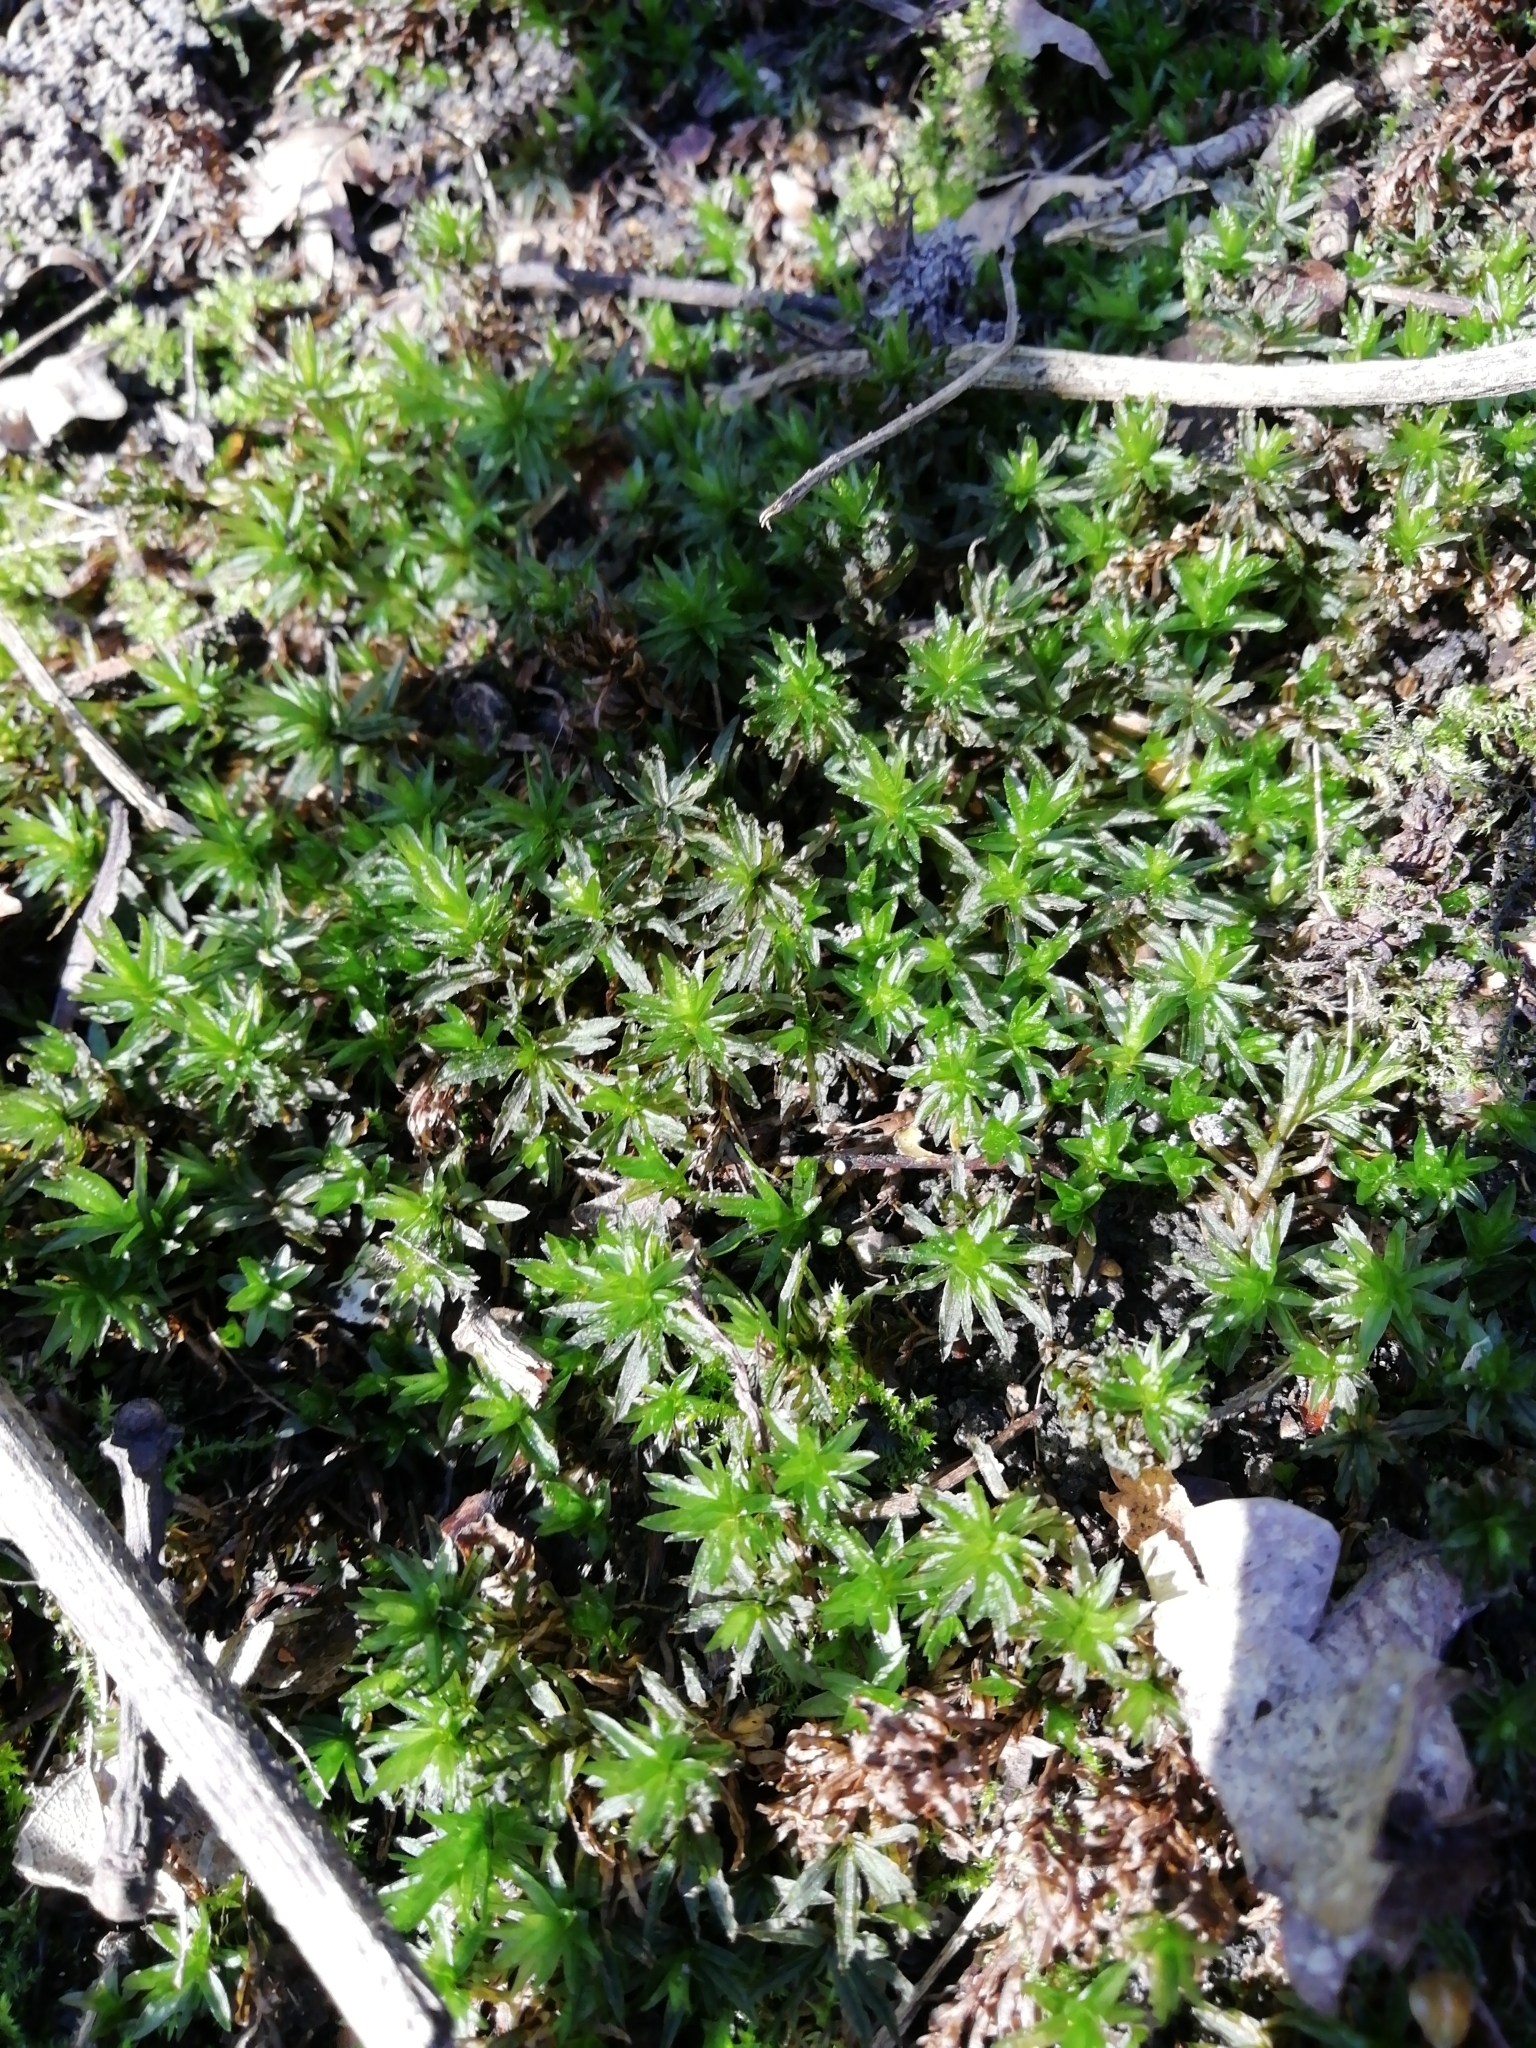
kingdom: Plantae
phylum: Bryophyta
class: Polytrichopsida
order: Polytrichales
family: Polytrichaceae
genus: Atrichum
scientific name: Atrichum undulatum
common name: Common smoothcap
